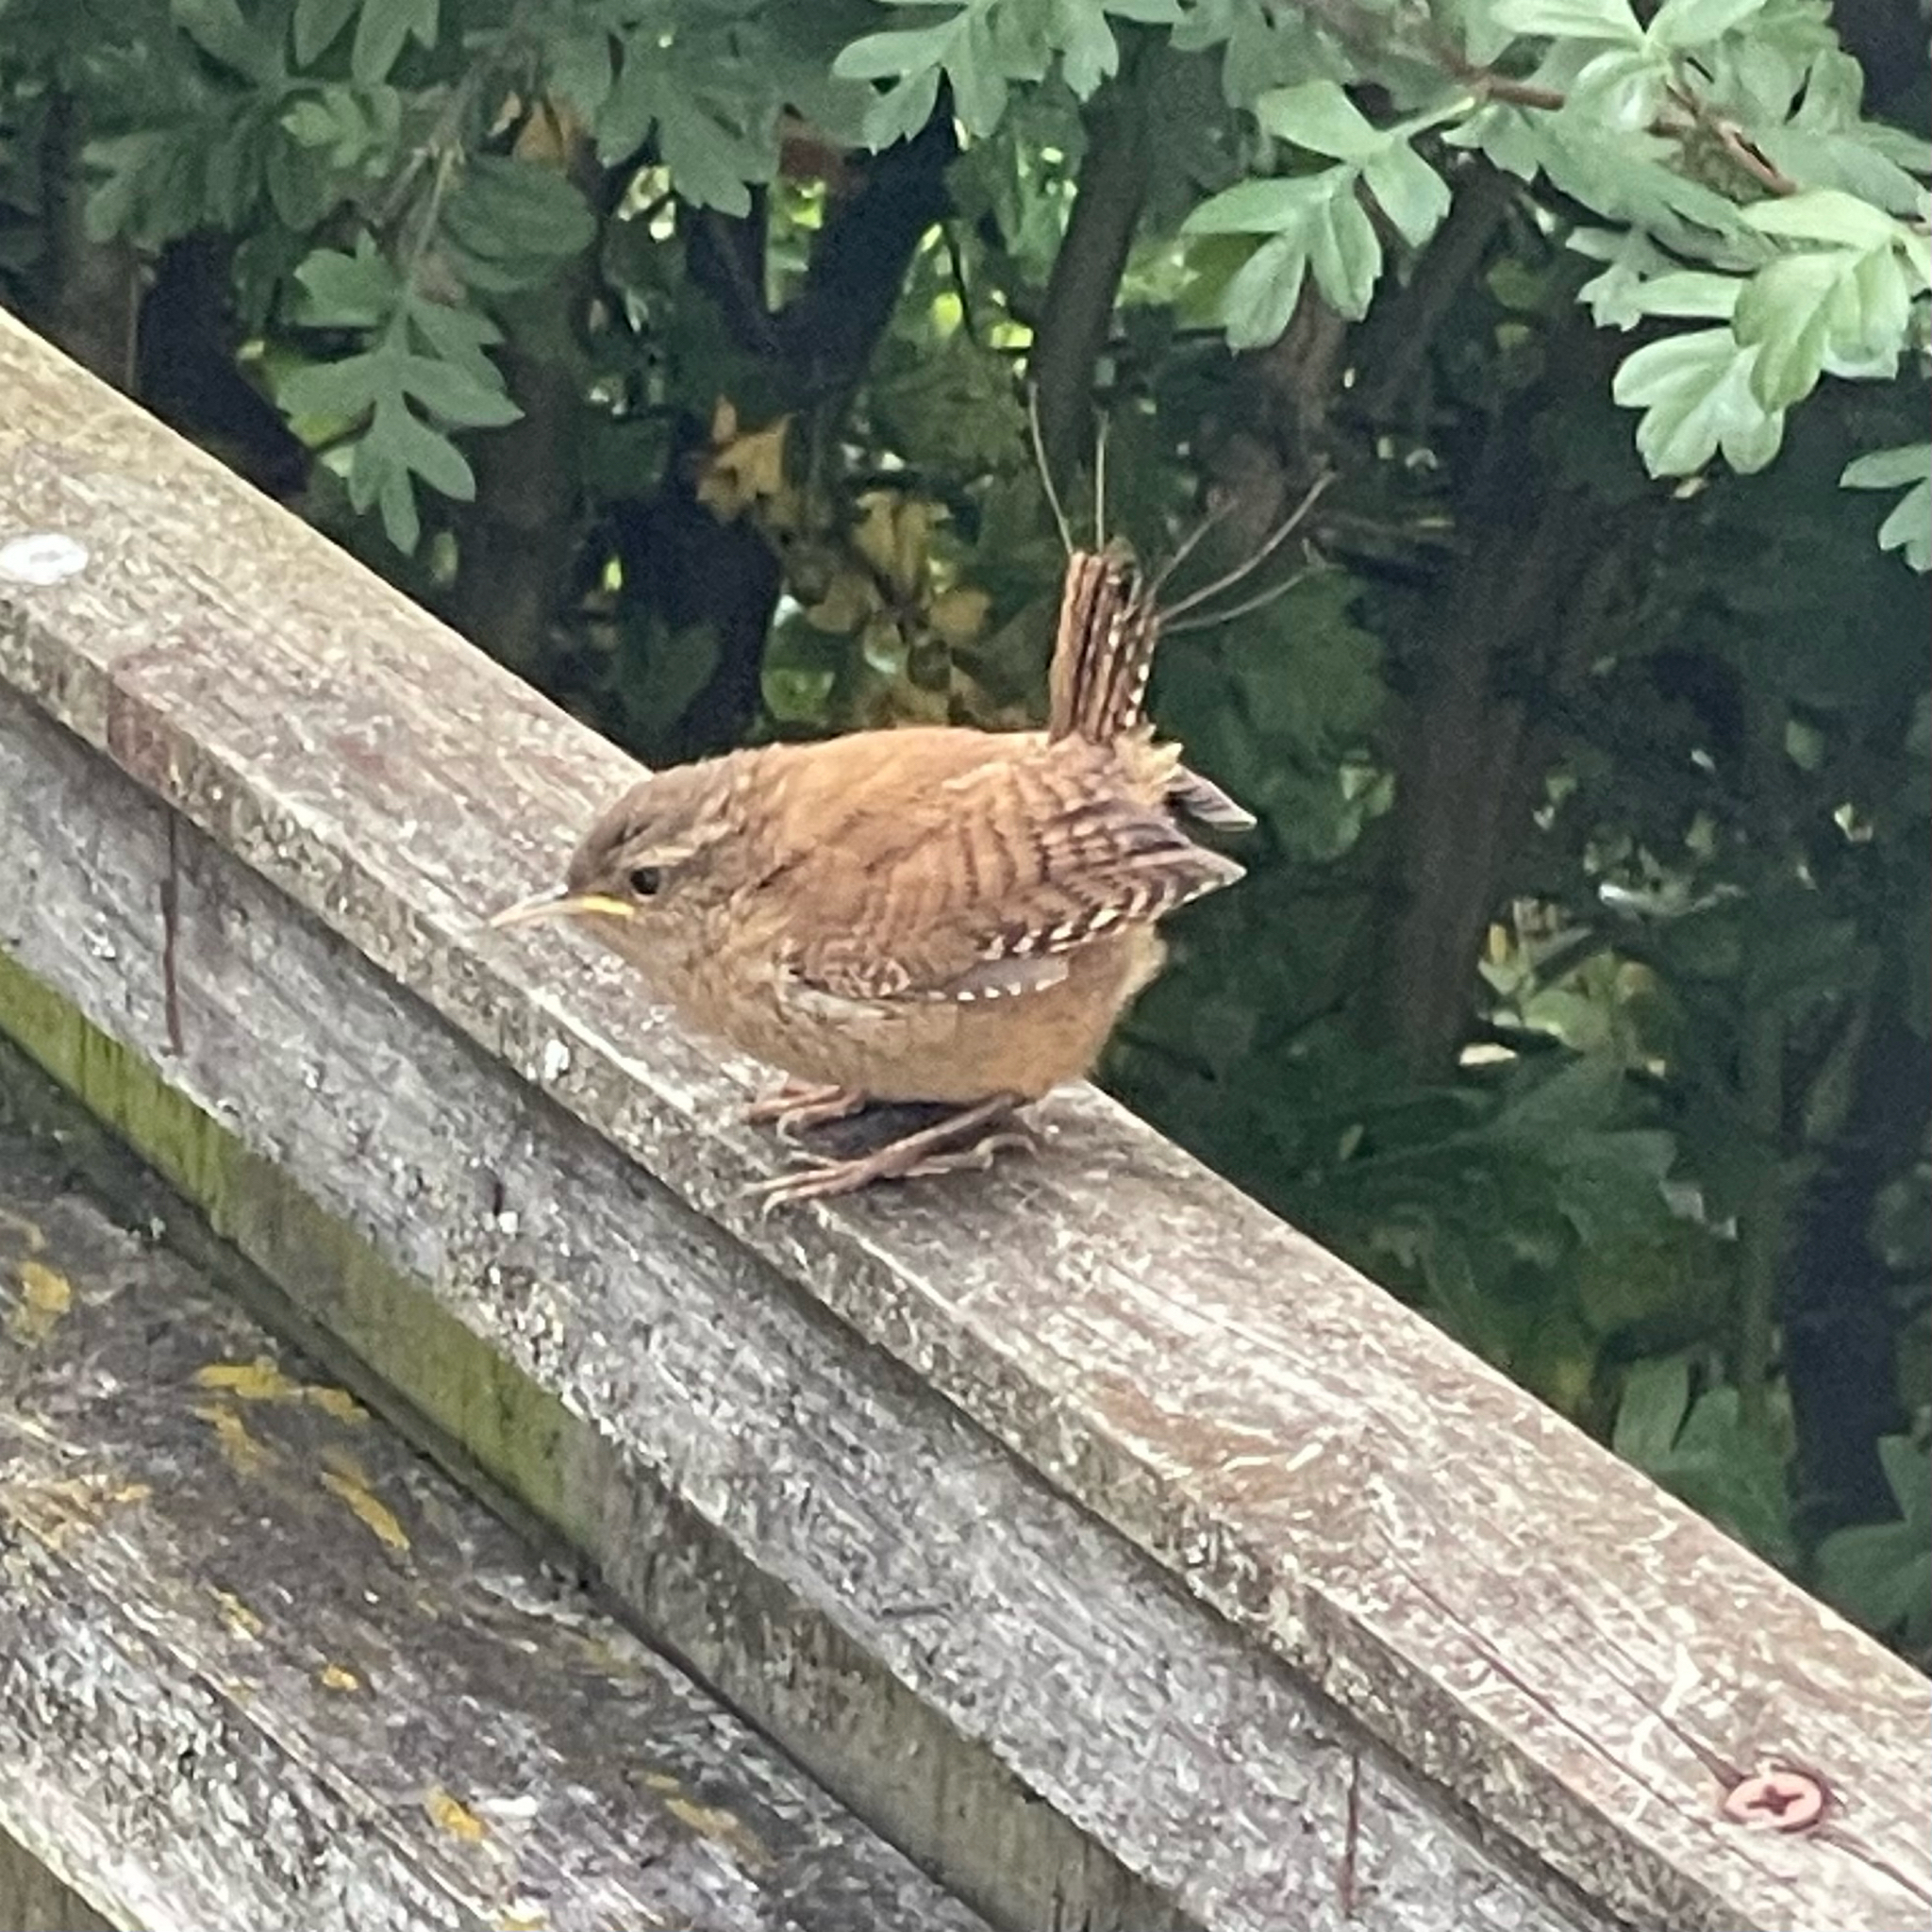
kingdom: Animalia
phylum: Chordata
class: Aves
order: Passeriformes
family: Troglodytidae
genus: Troglodytes
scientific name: Troglodytes troglodytes
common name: Eurasian wren
